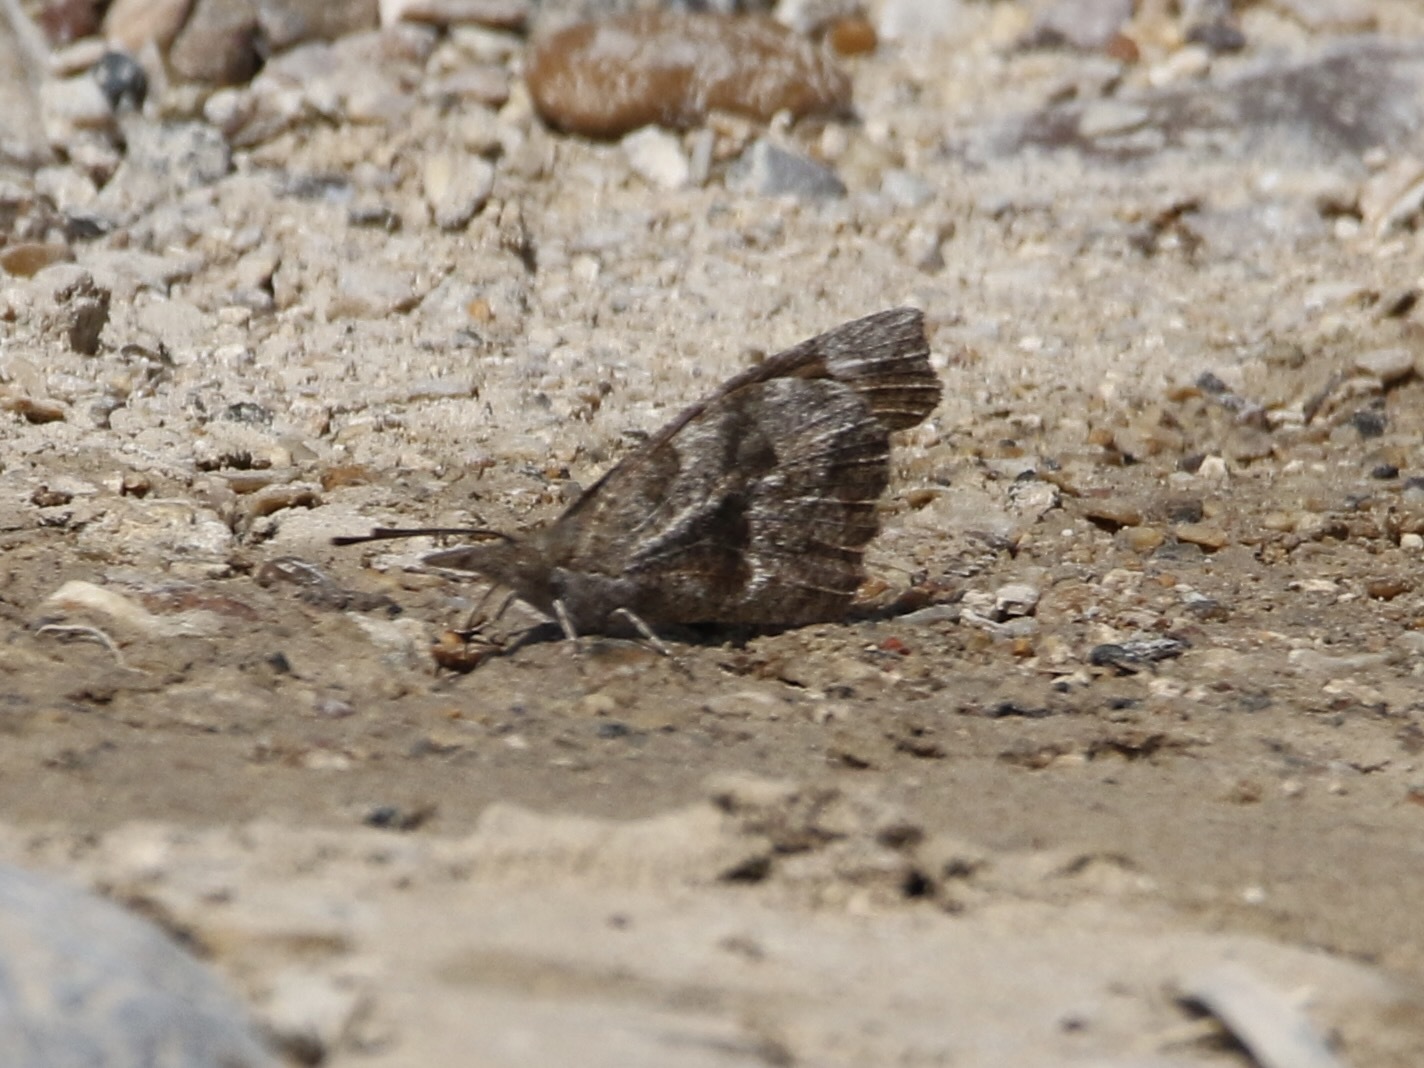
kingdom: Animalia
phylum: Arthropoda
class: Insecta
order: Lepidoptera
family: Nymphalidae
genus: Libytheana
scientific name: Libytheana carinenta
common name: American snout
